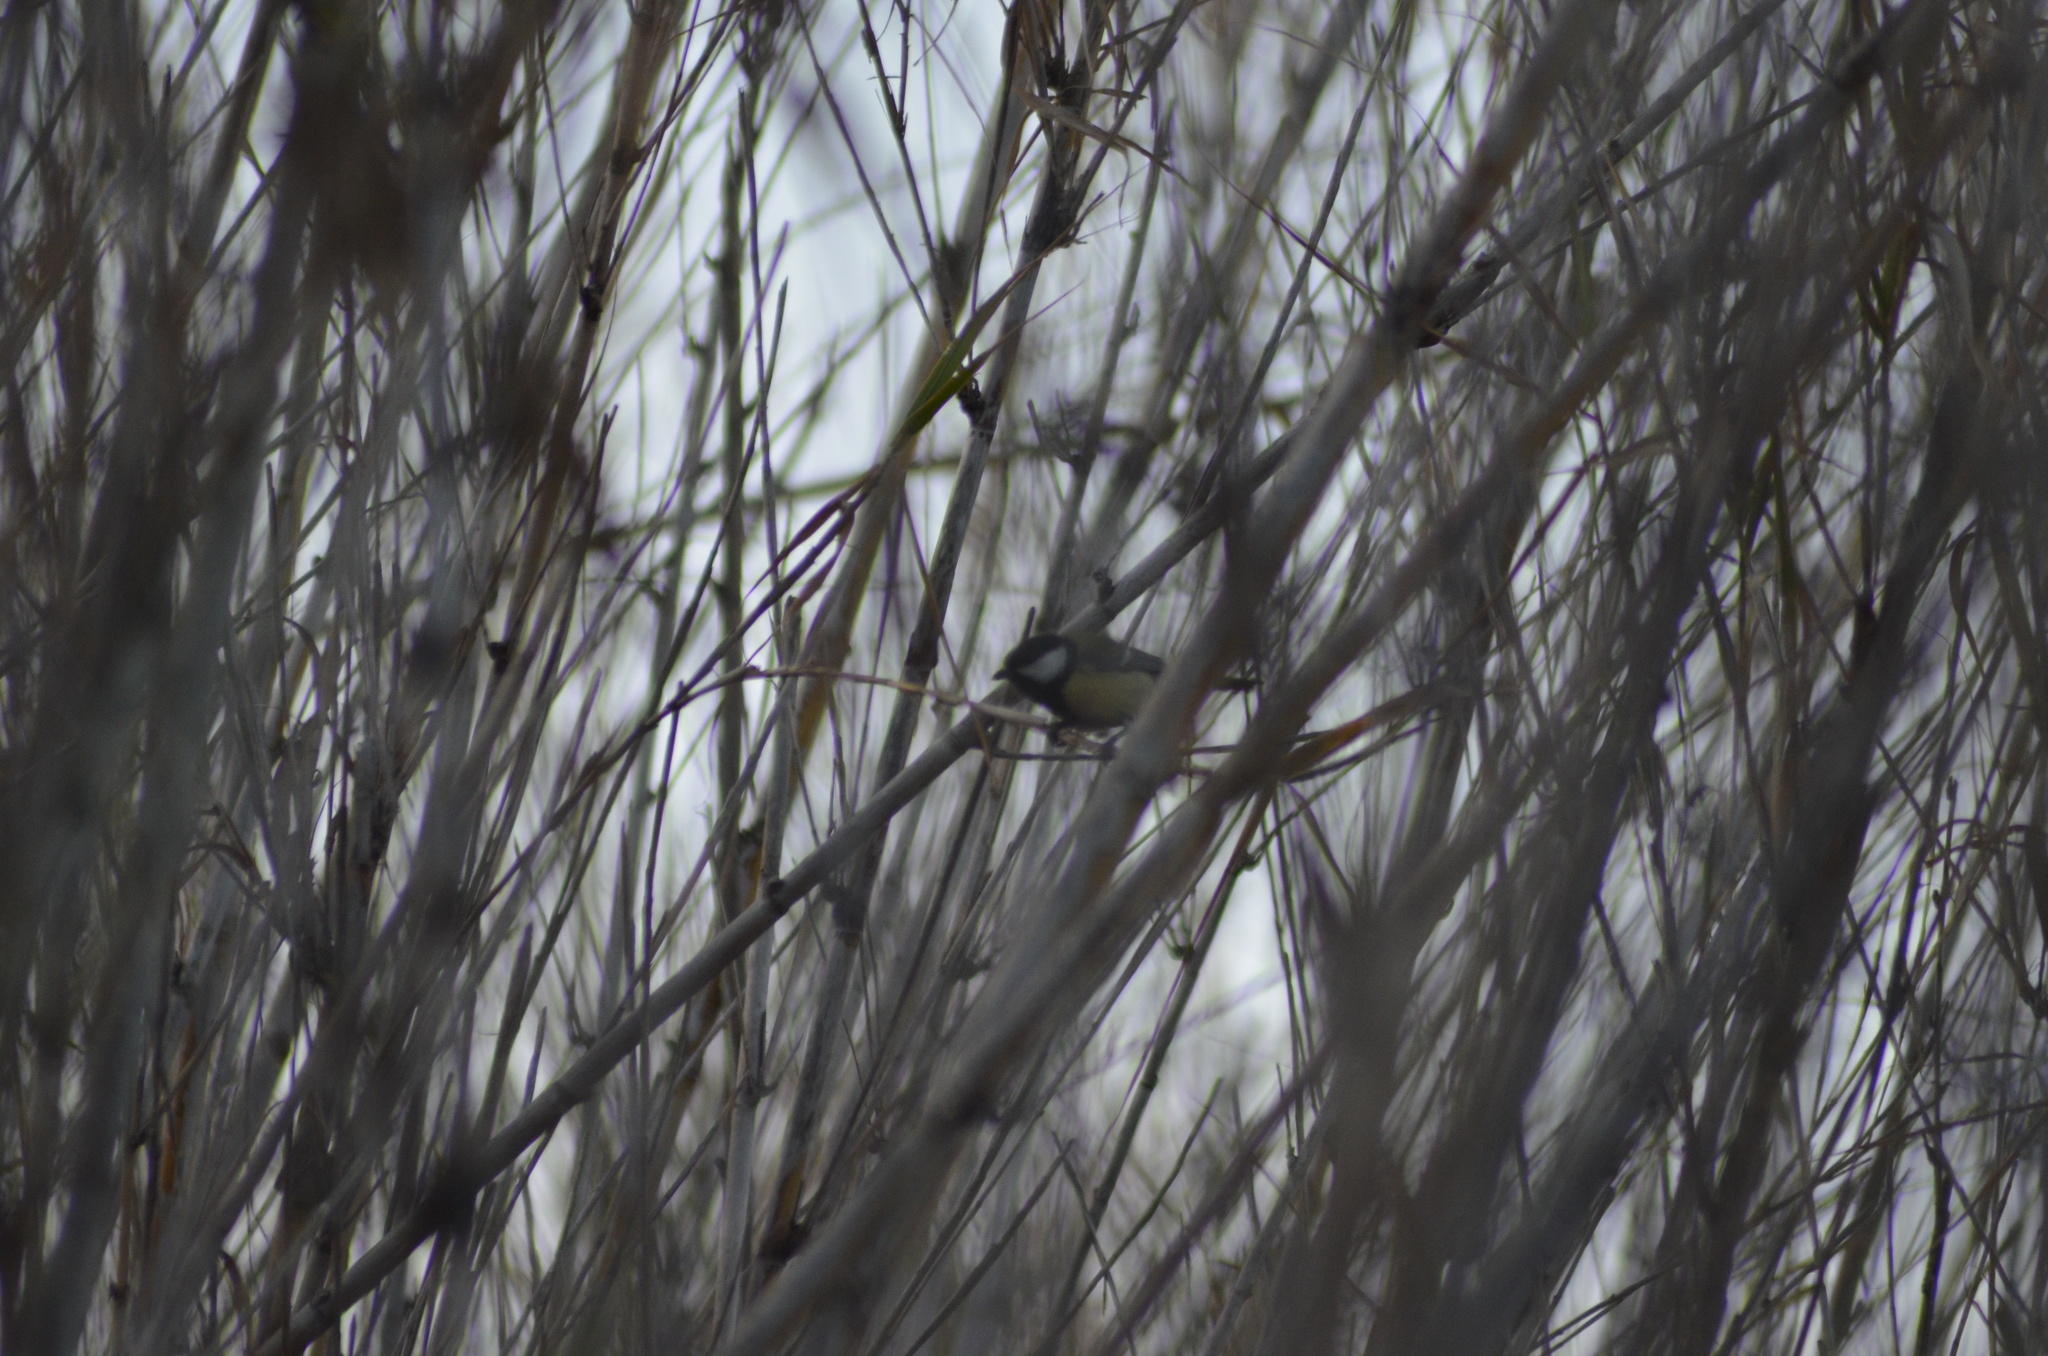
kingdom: Animalia
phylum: Chordata
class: Aves
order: Passeriformes
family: Paridae
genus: Parus
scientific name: Parus major
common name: Great tit
